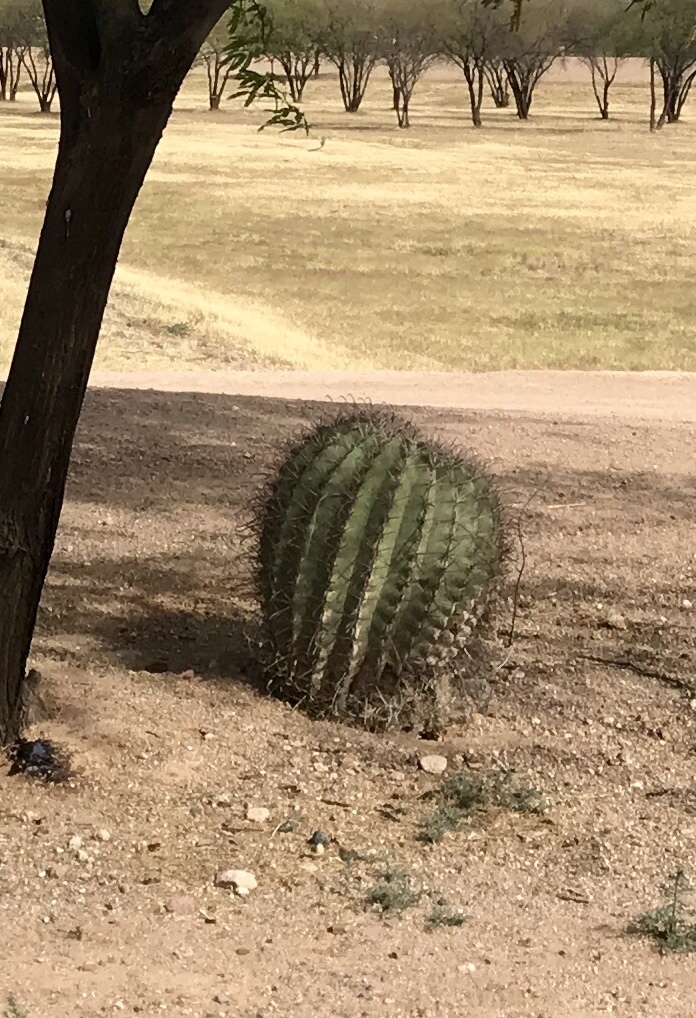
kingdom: Plantae
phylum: Tracheophyta
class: Magnoliopsida
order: Caryophyllales
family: Cactaceae
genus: Ferocactus
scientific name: Ferocactus wislizeni
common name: Candy barrel cactus
